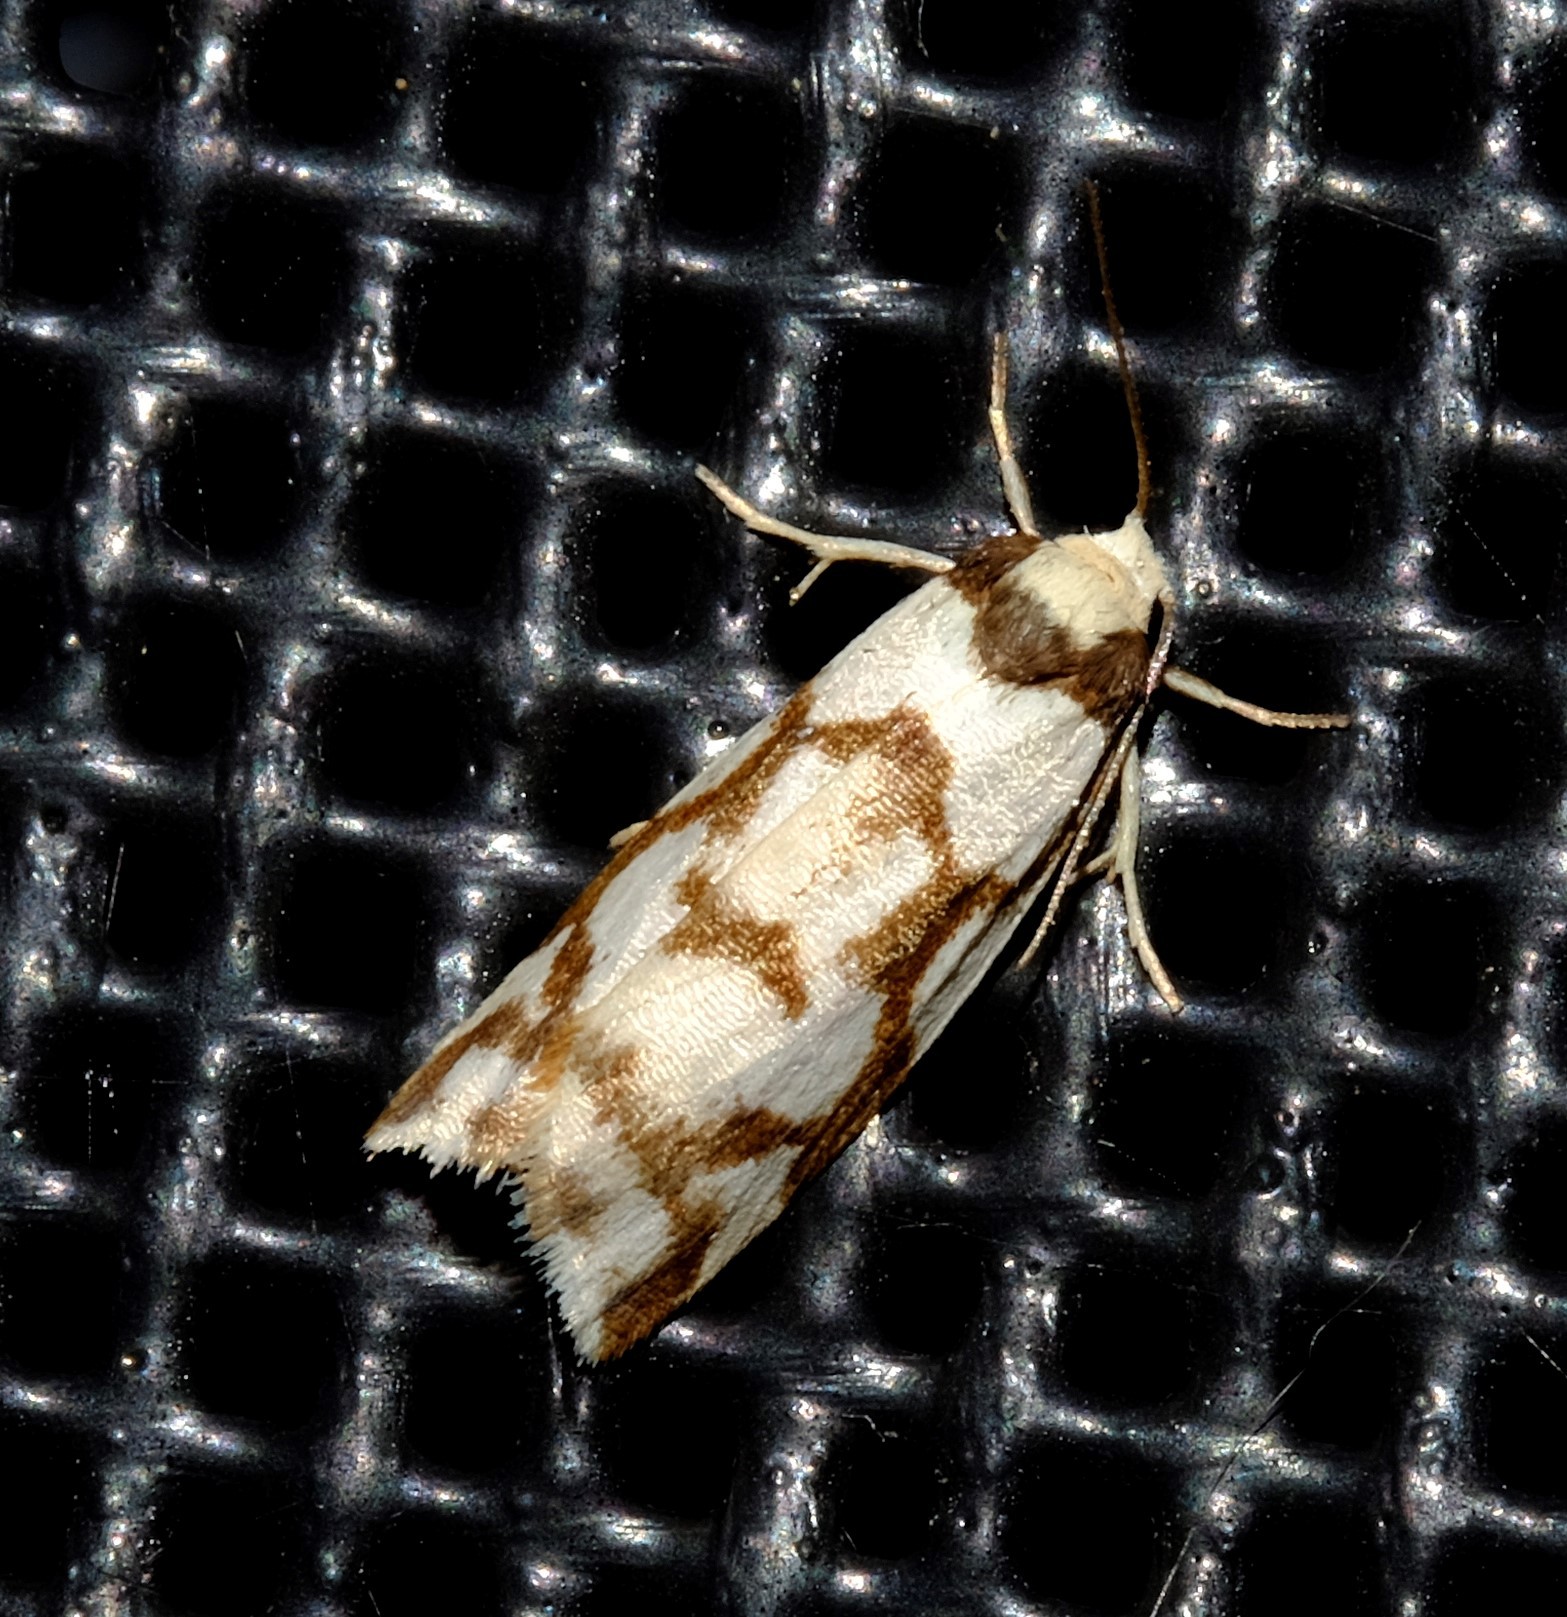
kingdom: Animalia
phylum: Arthropoda
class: Insecta
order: Lepidoptera
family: Erebidae
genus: Scaptesyle
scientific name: Scaptesyle dichotoma
